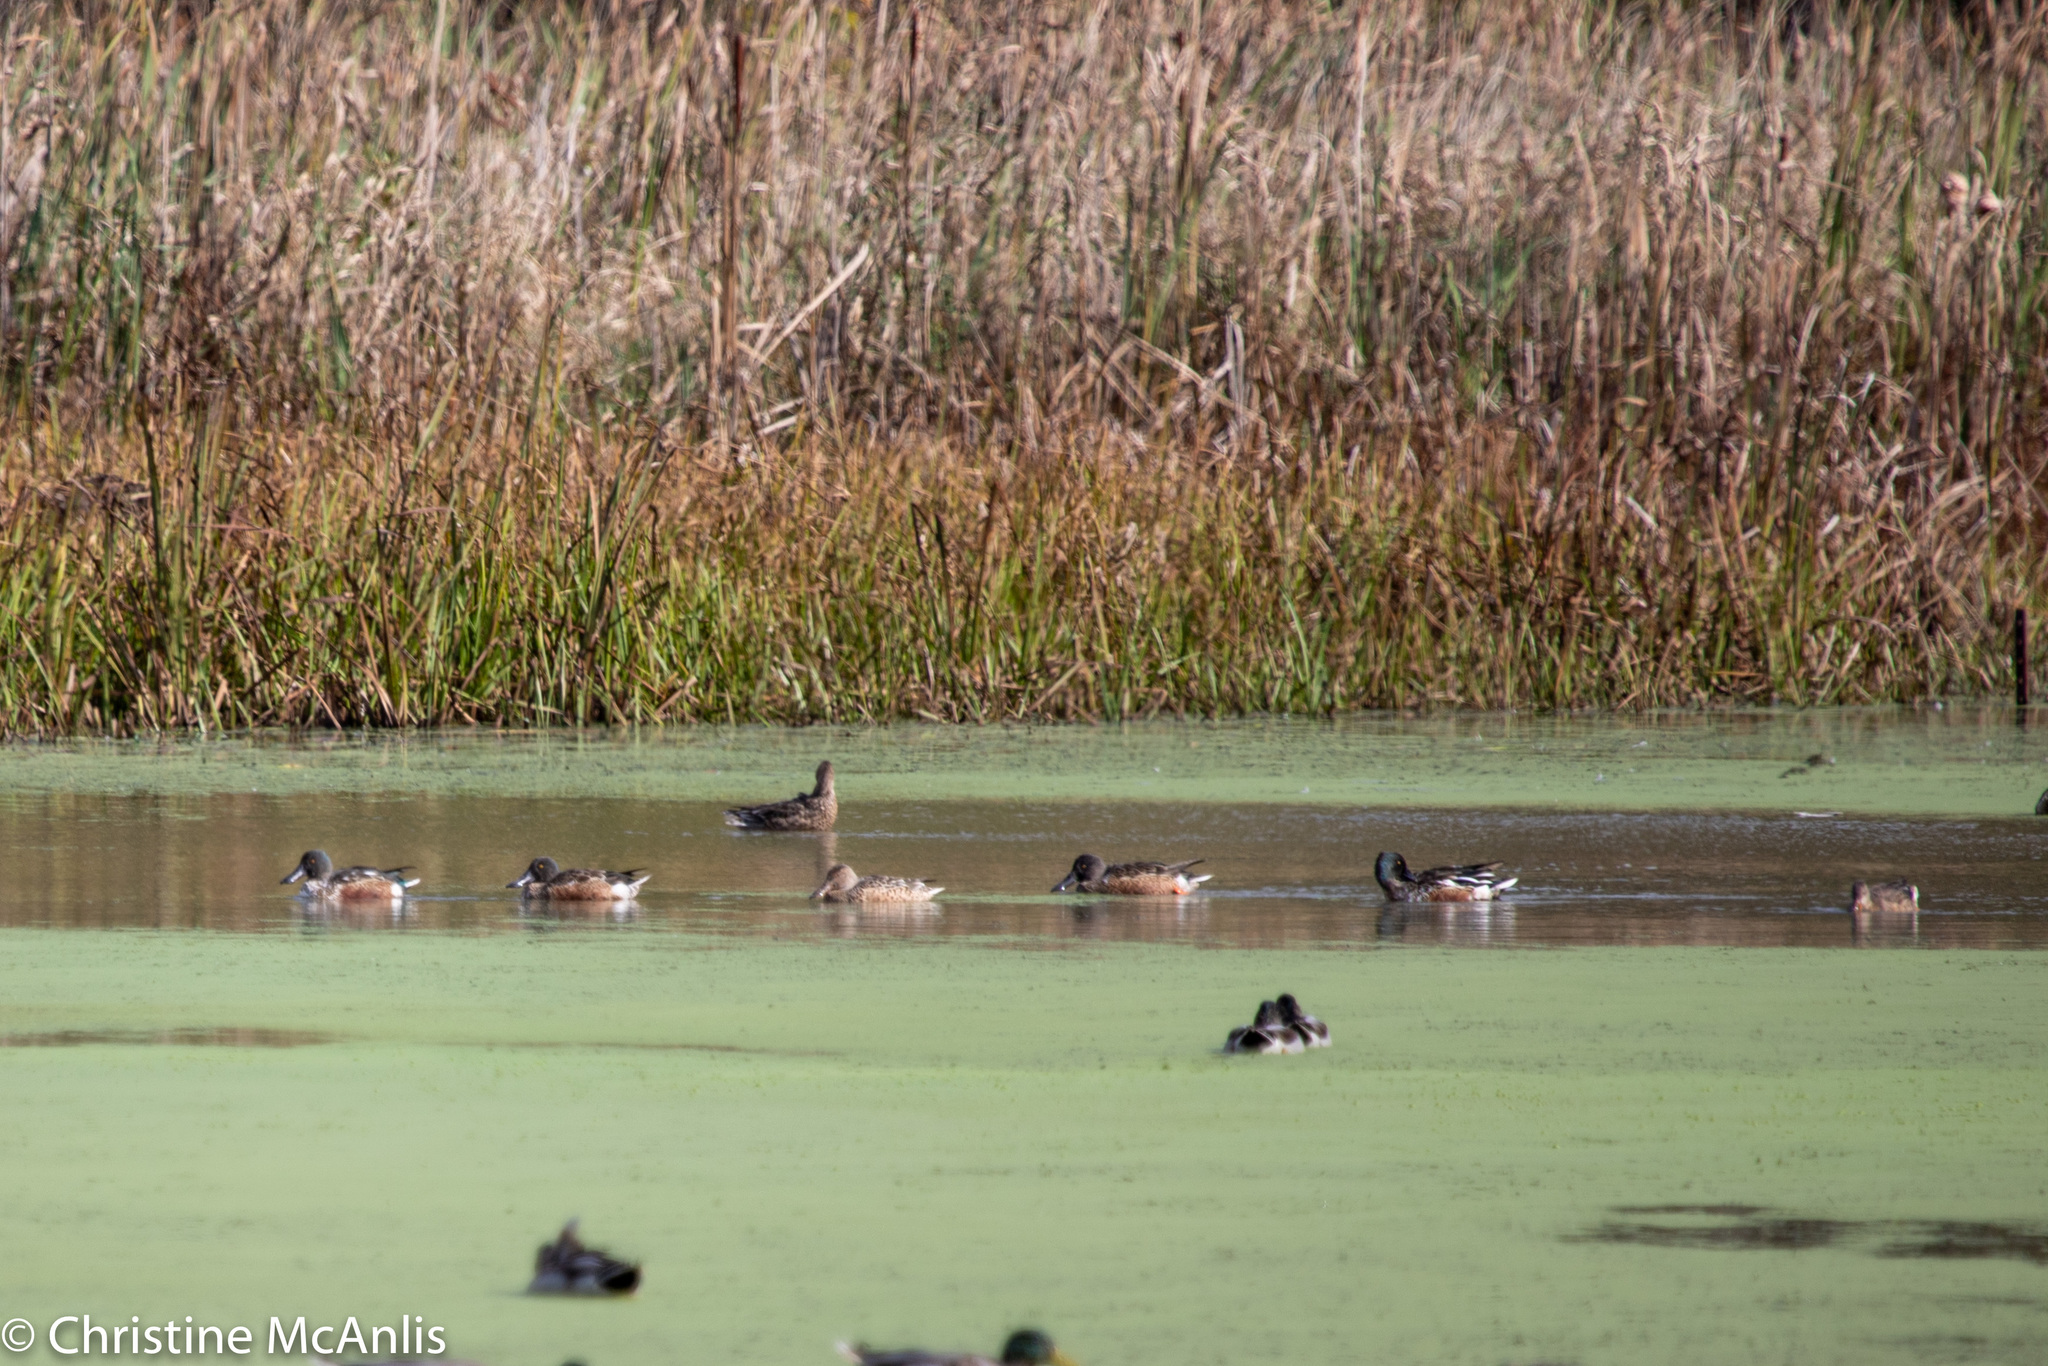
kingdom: Animalia
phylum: Chordata
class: Aves
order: Anseriformes
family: Anatidae
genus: Spatula
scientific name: Spatula clypeata
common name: Northern shoveler
